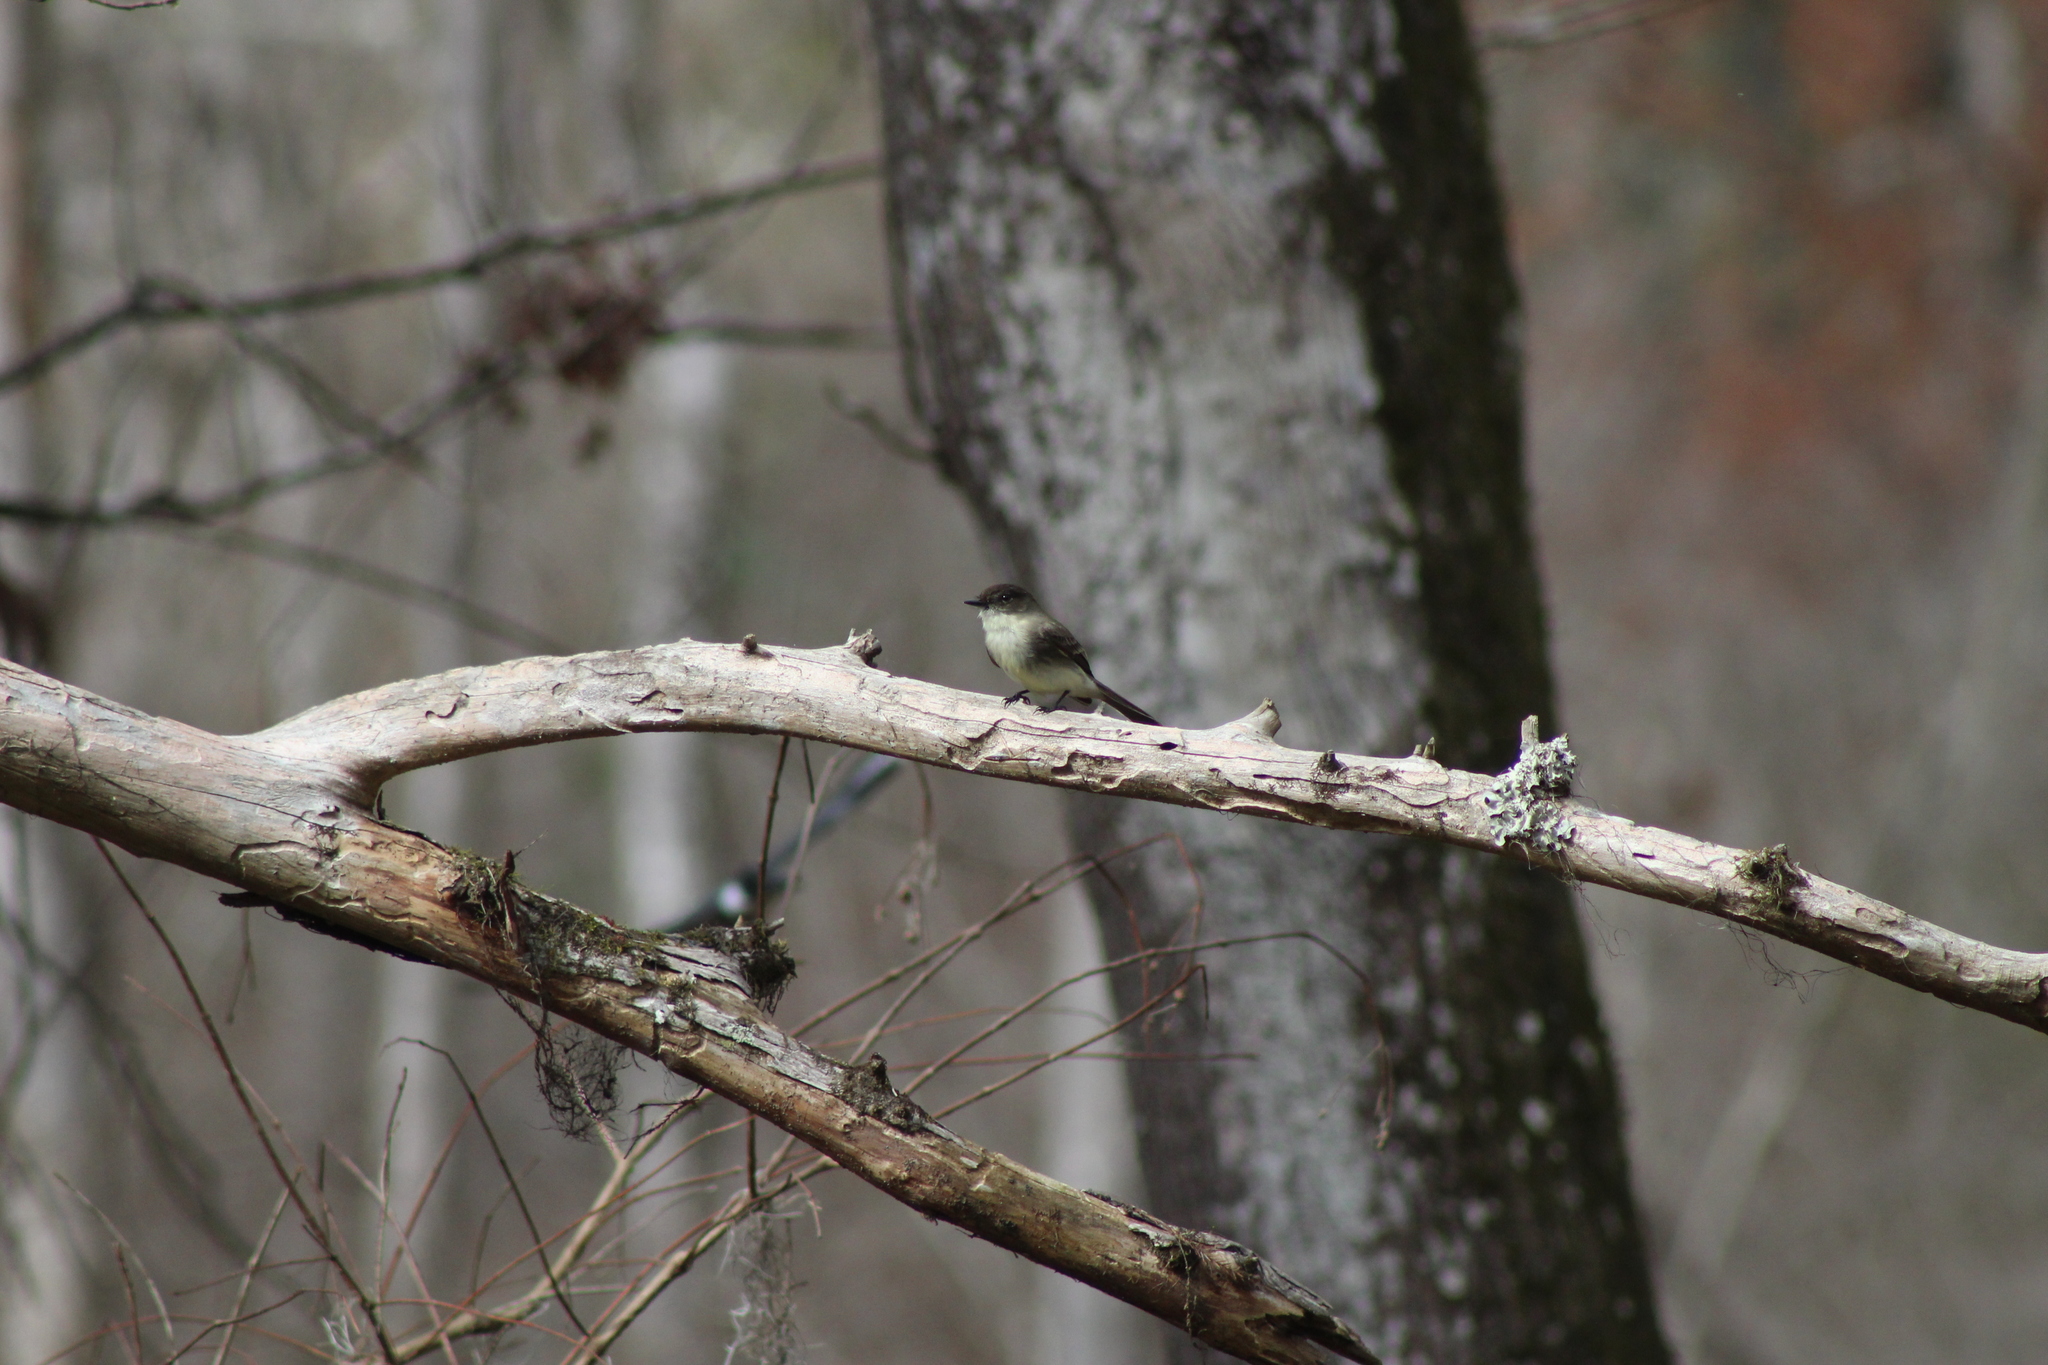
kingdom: Animalia
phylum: Chordata
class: Aves
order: Passeriformes
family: Tyrannidae
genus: Sayornis
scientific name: Sayornis phoebe
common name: Eastern phoebe
